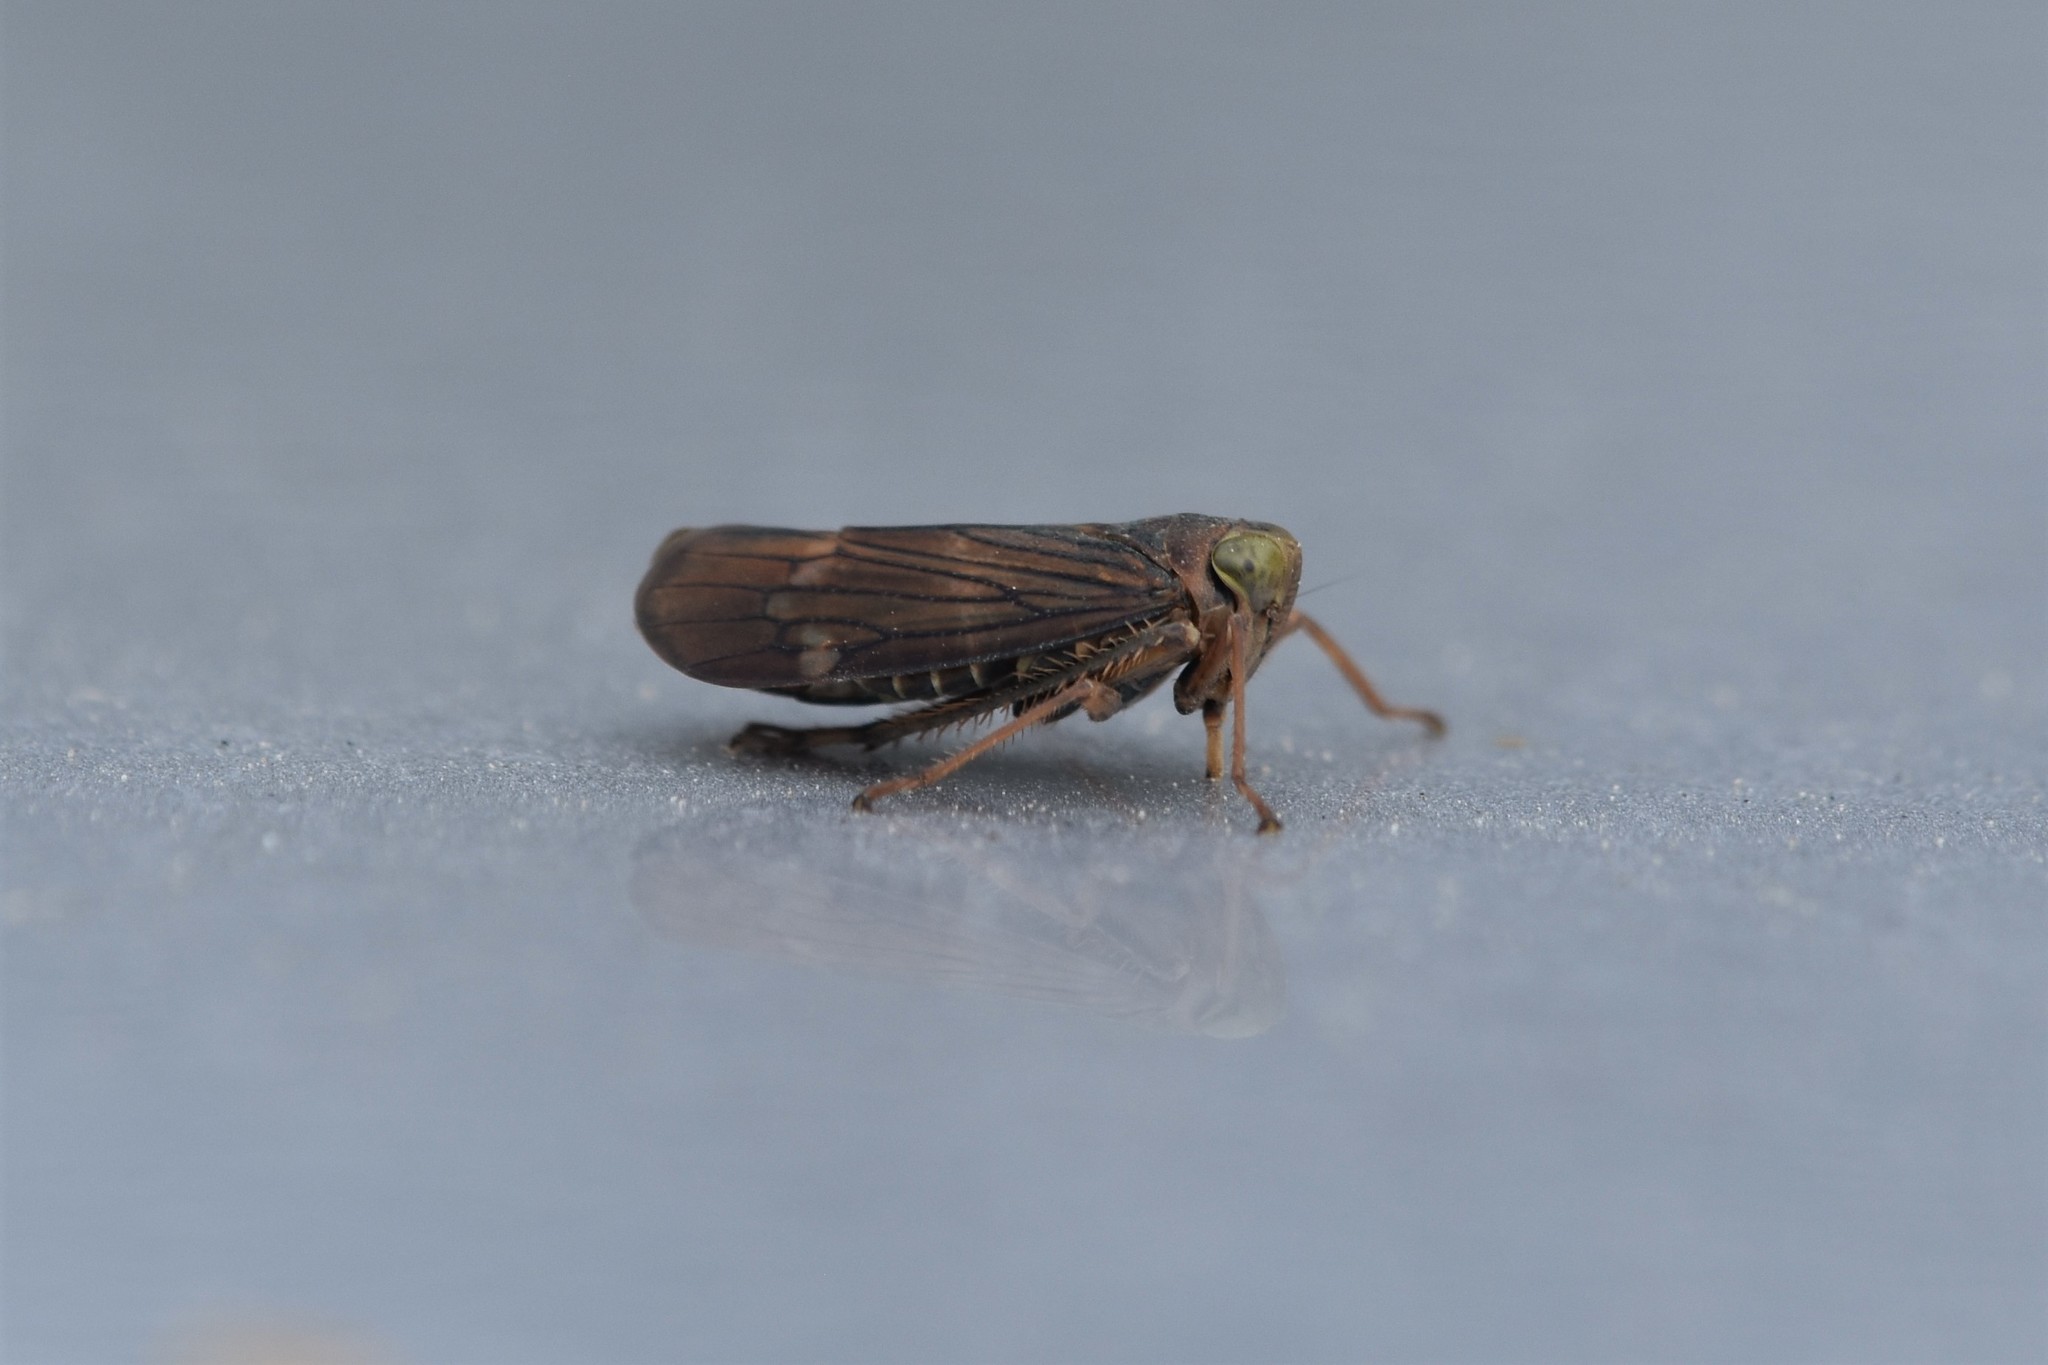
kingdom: Animalia
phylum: Arthropoda
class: Insecta
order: Hemiptera
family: Cicadellidae
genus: Jikradia
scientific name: Jikradia olitoria
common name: Coppery leafhopper
